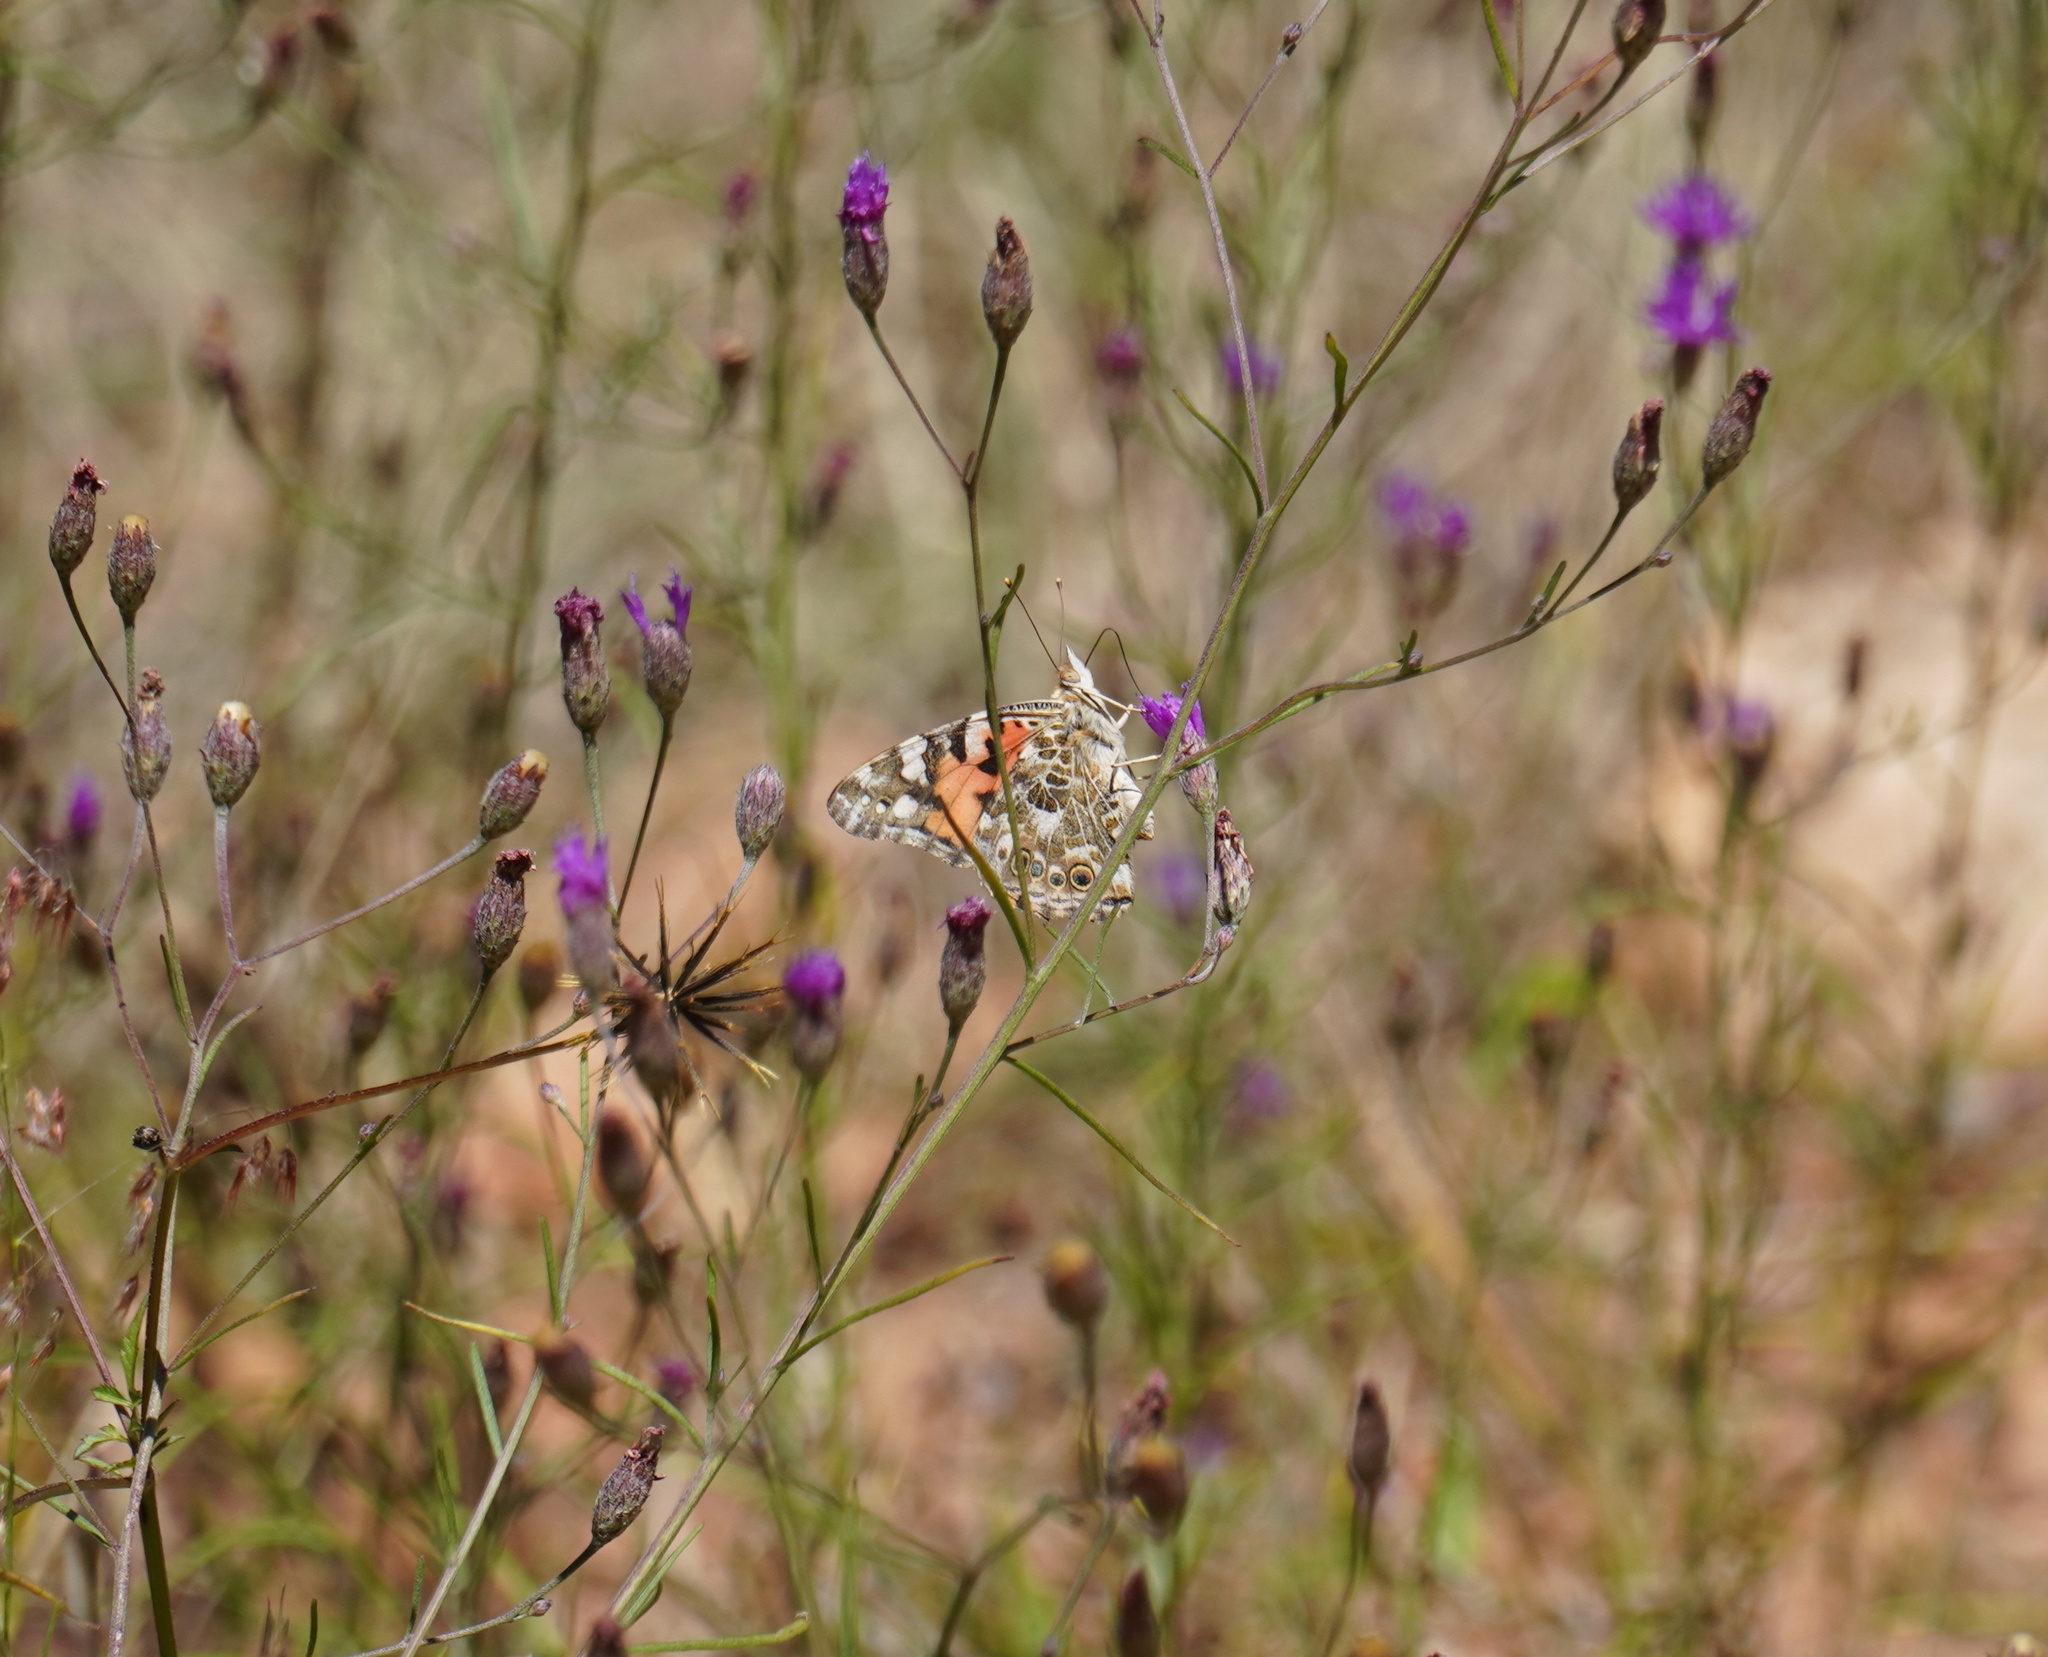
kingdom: Animalia
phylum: Arthropoda
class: Insecta
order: Lepidoptera
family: Nymphalidae
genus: Vanessa
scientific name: Vanessa cardui
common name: Painted lady
